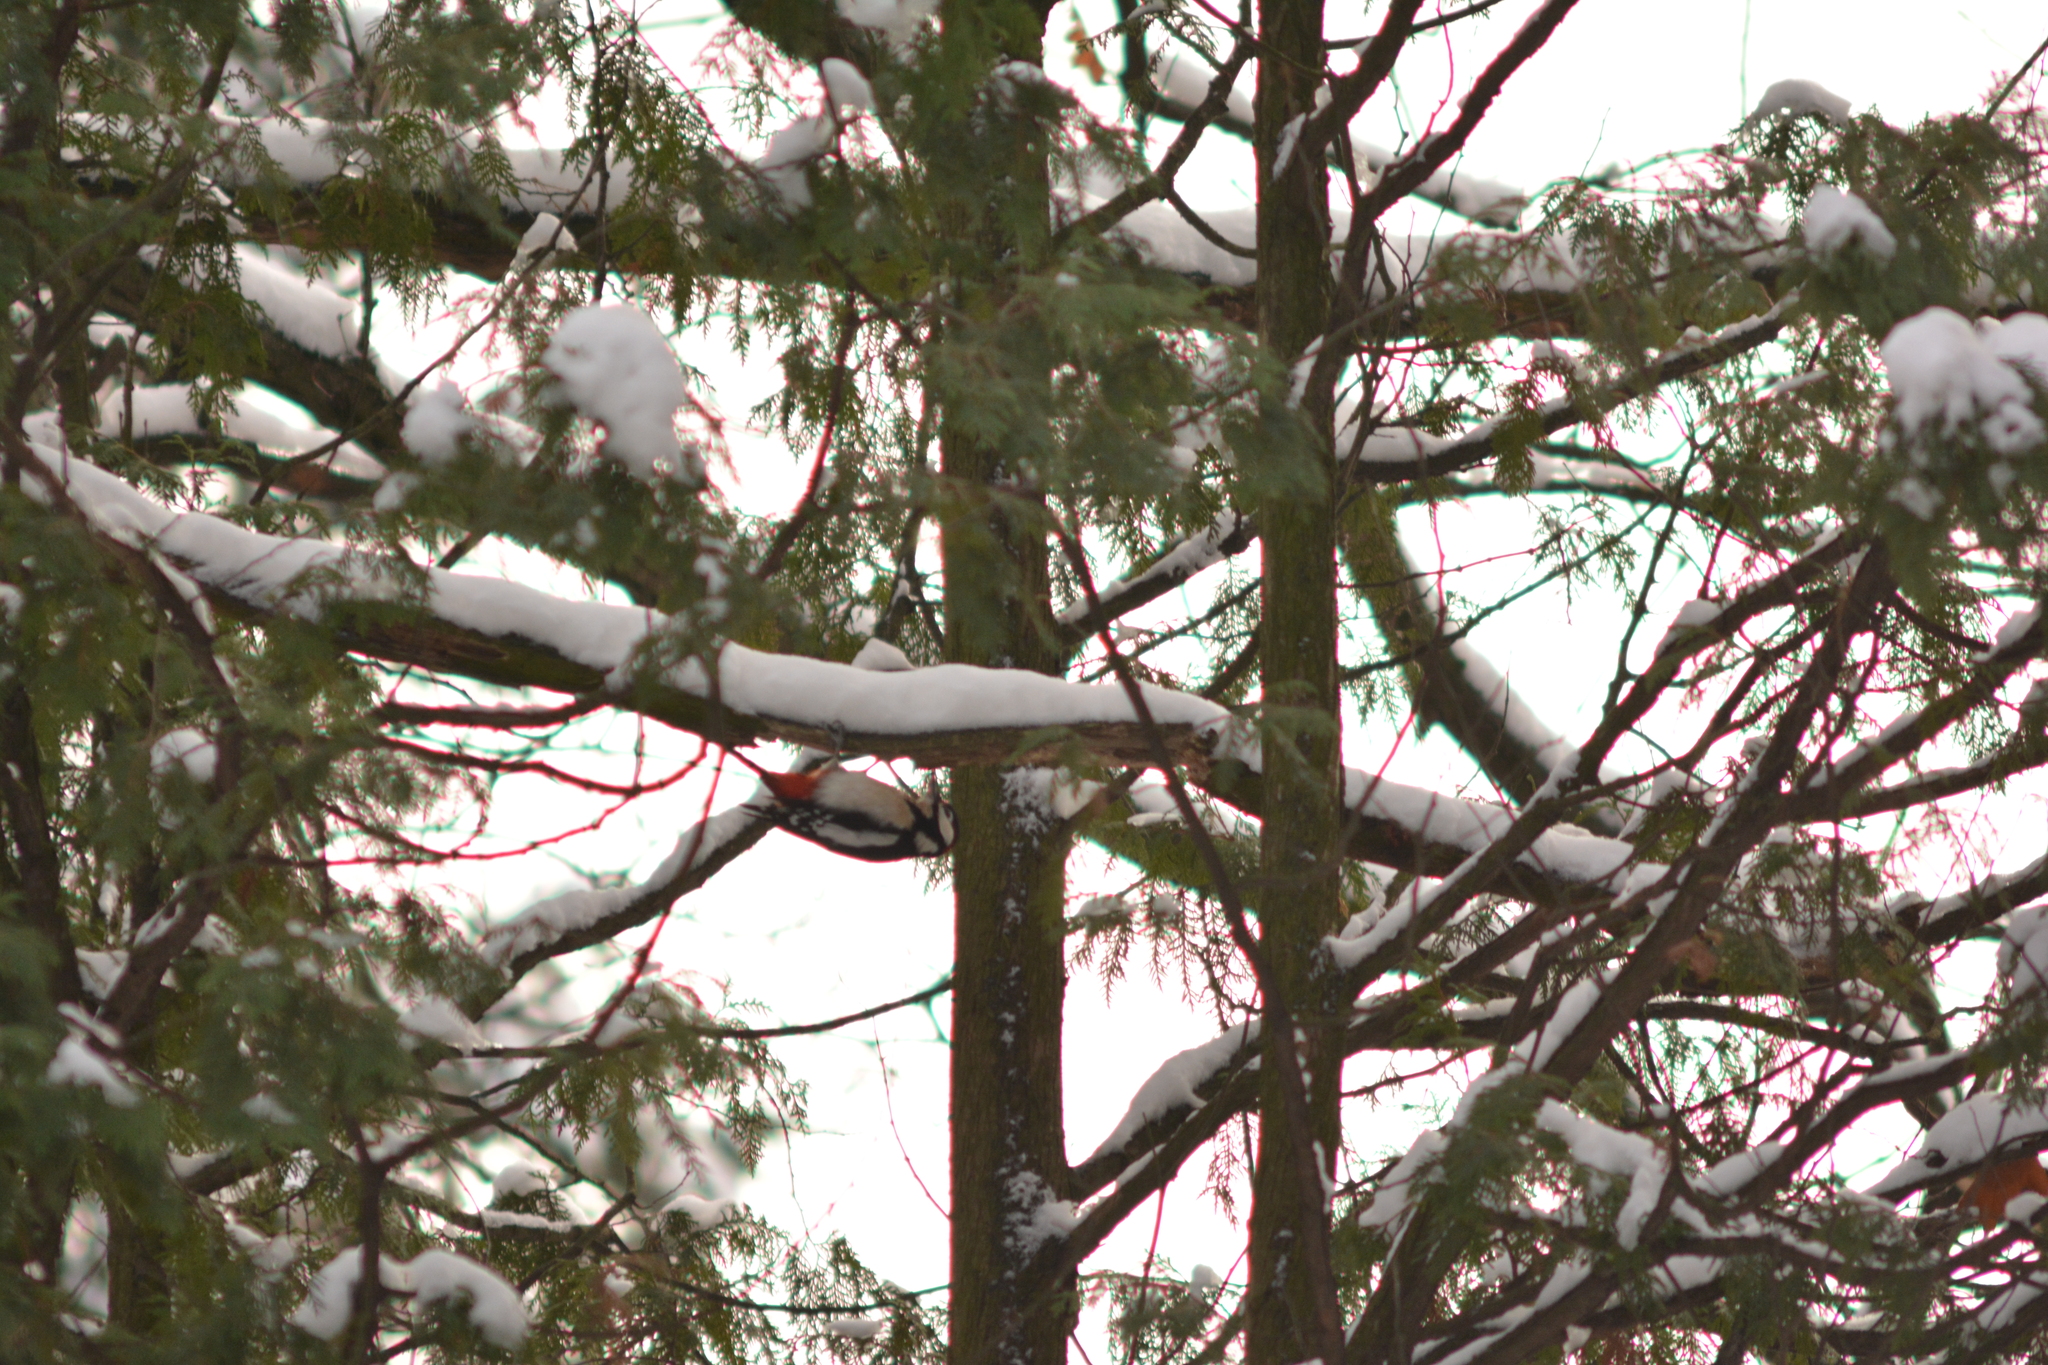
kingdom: Animalia
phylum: Chordata
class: Aves
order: Piciformes
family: Picidae
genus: Dendrocopos
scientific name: Dendrocopos major
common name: Great spotted woodpecker
